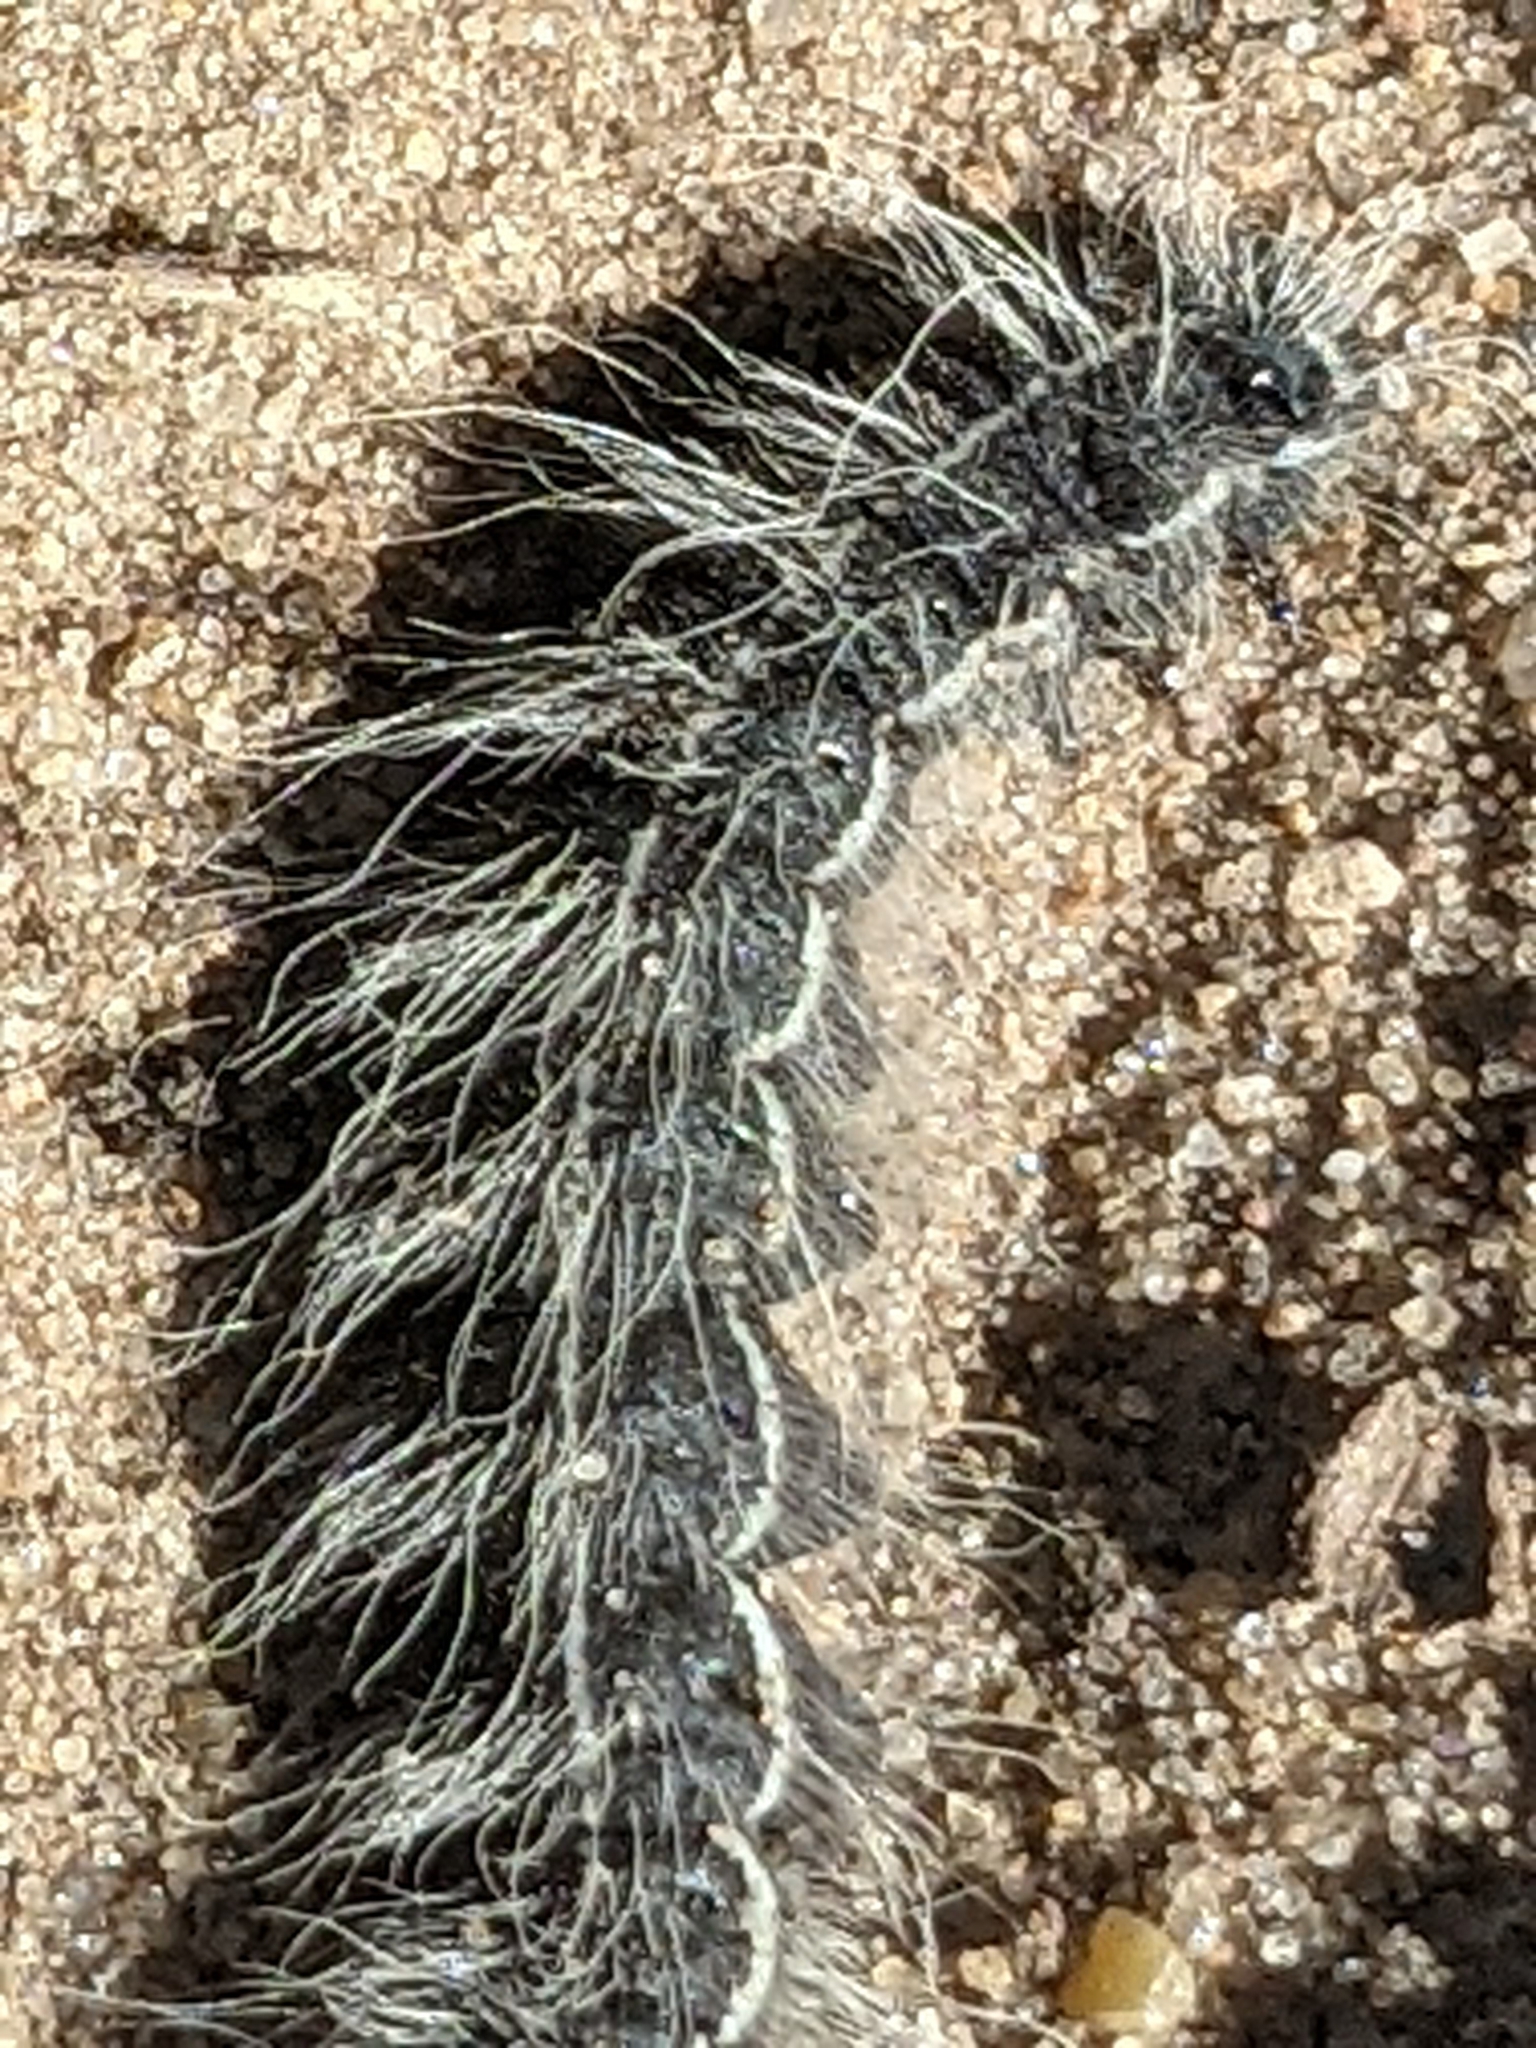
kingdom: Animalia
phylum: Arthropoda
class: Insecta
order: Lepidoptera
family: Notodontidae
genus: Datana
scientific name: Datana integerrima
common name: Walnut caterpillar
